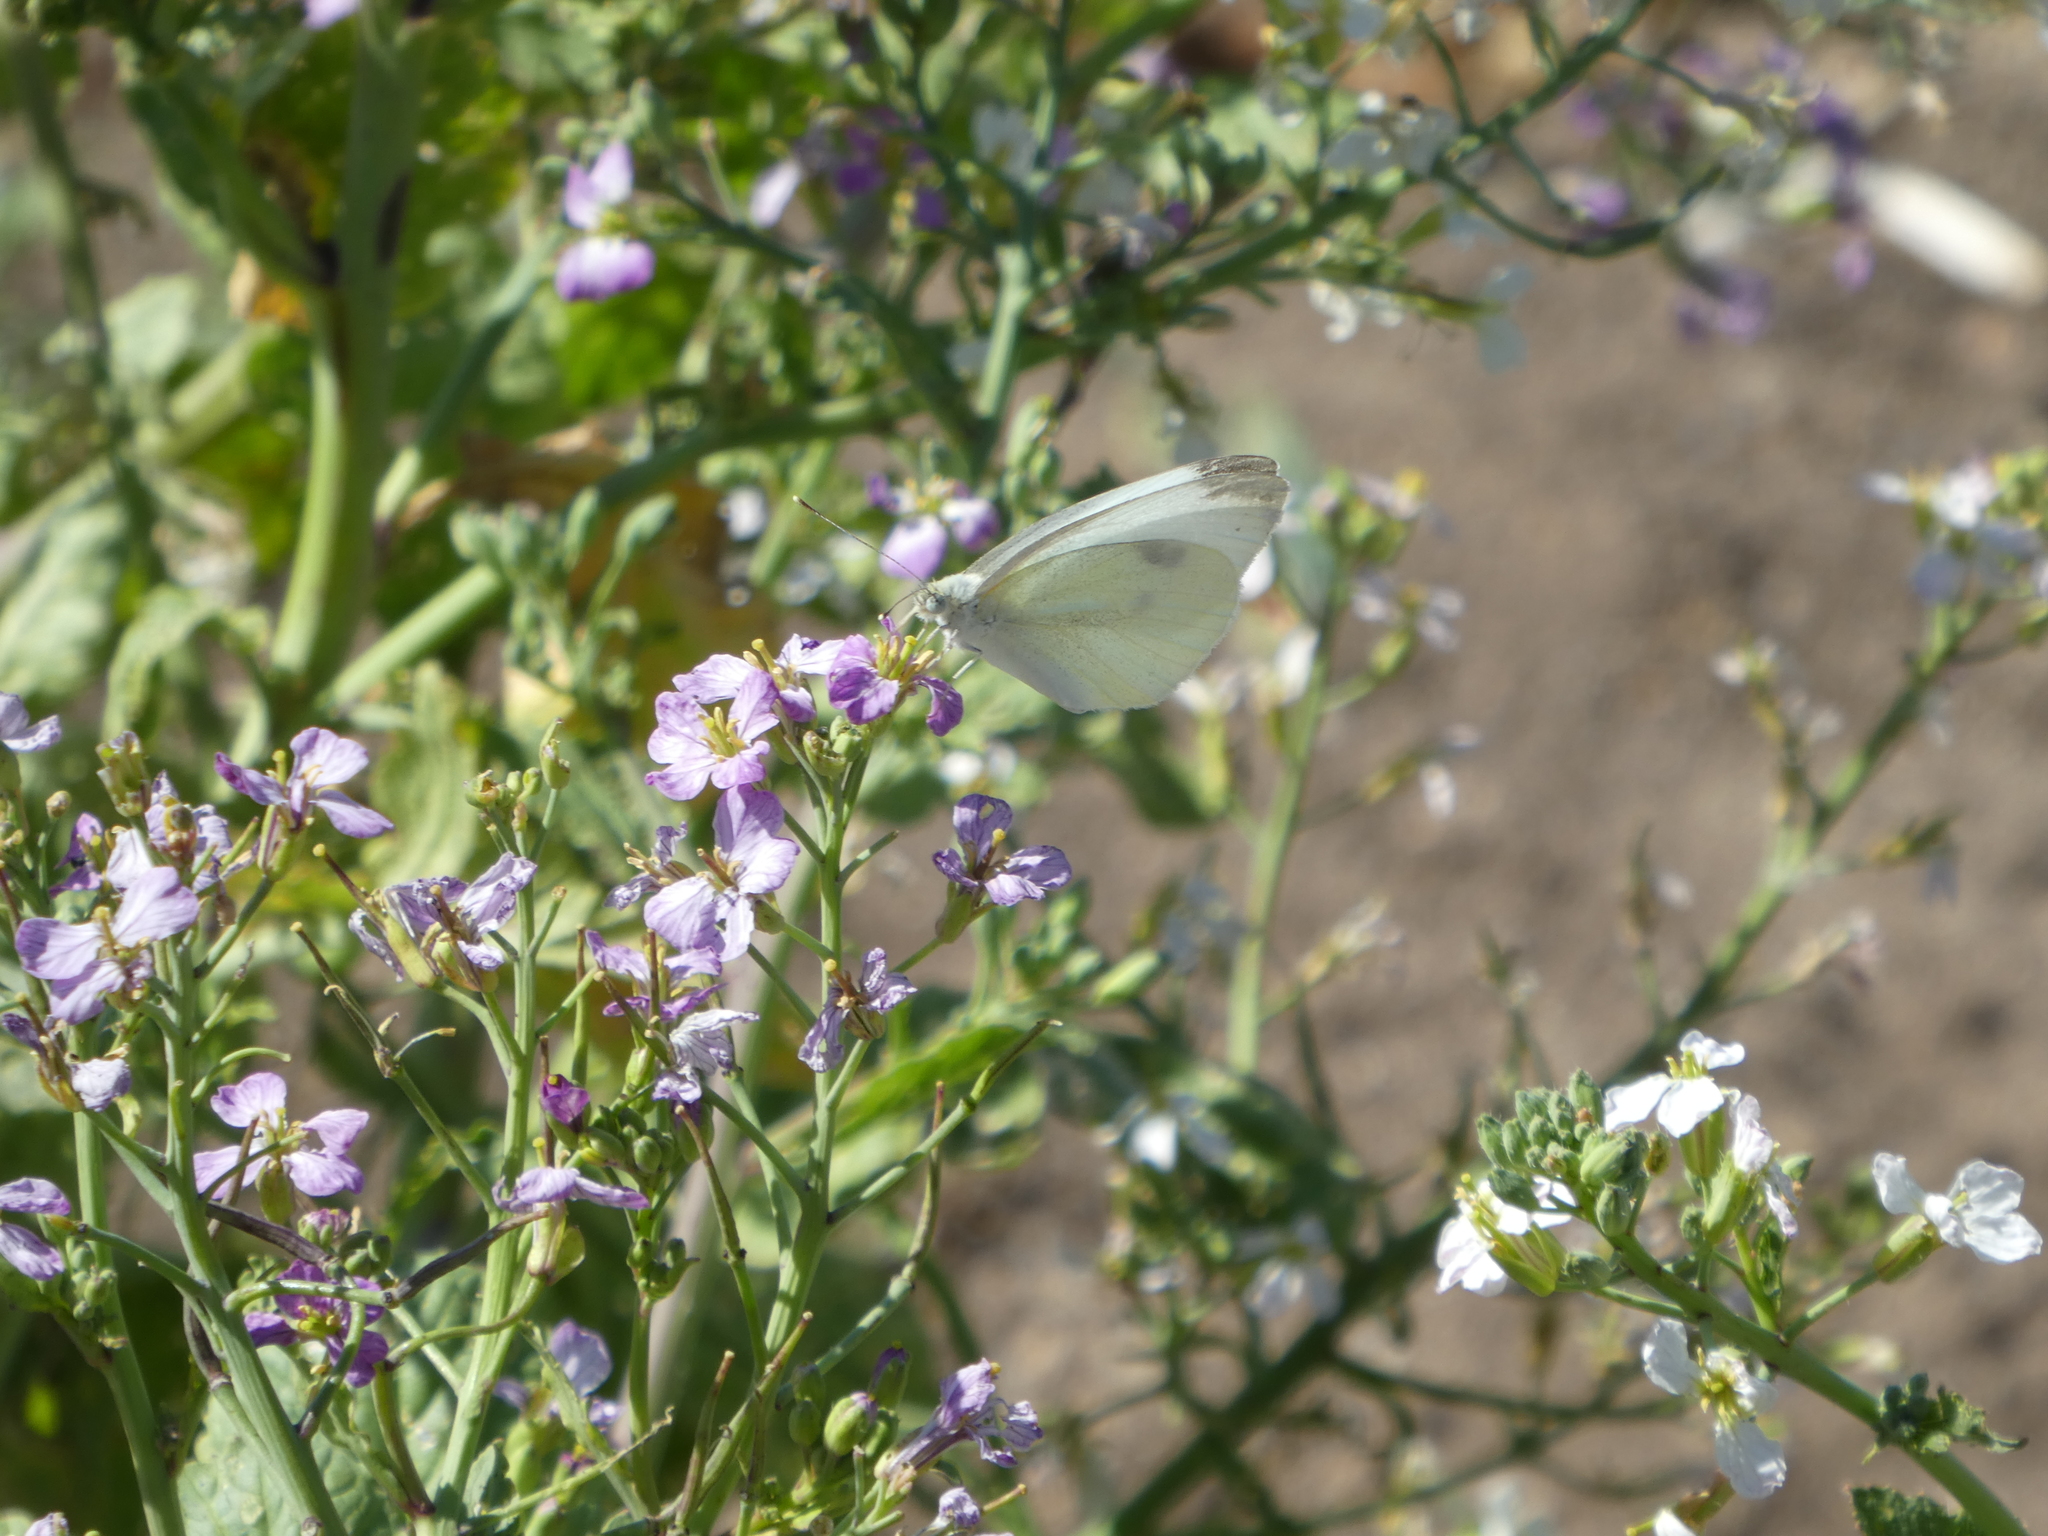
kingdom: Animalia
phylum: Arthropoda
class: Insecta
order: Lepidoptera
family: Pieridae
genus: Pieris
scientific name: Pieris rapae
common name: Small white
